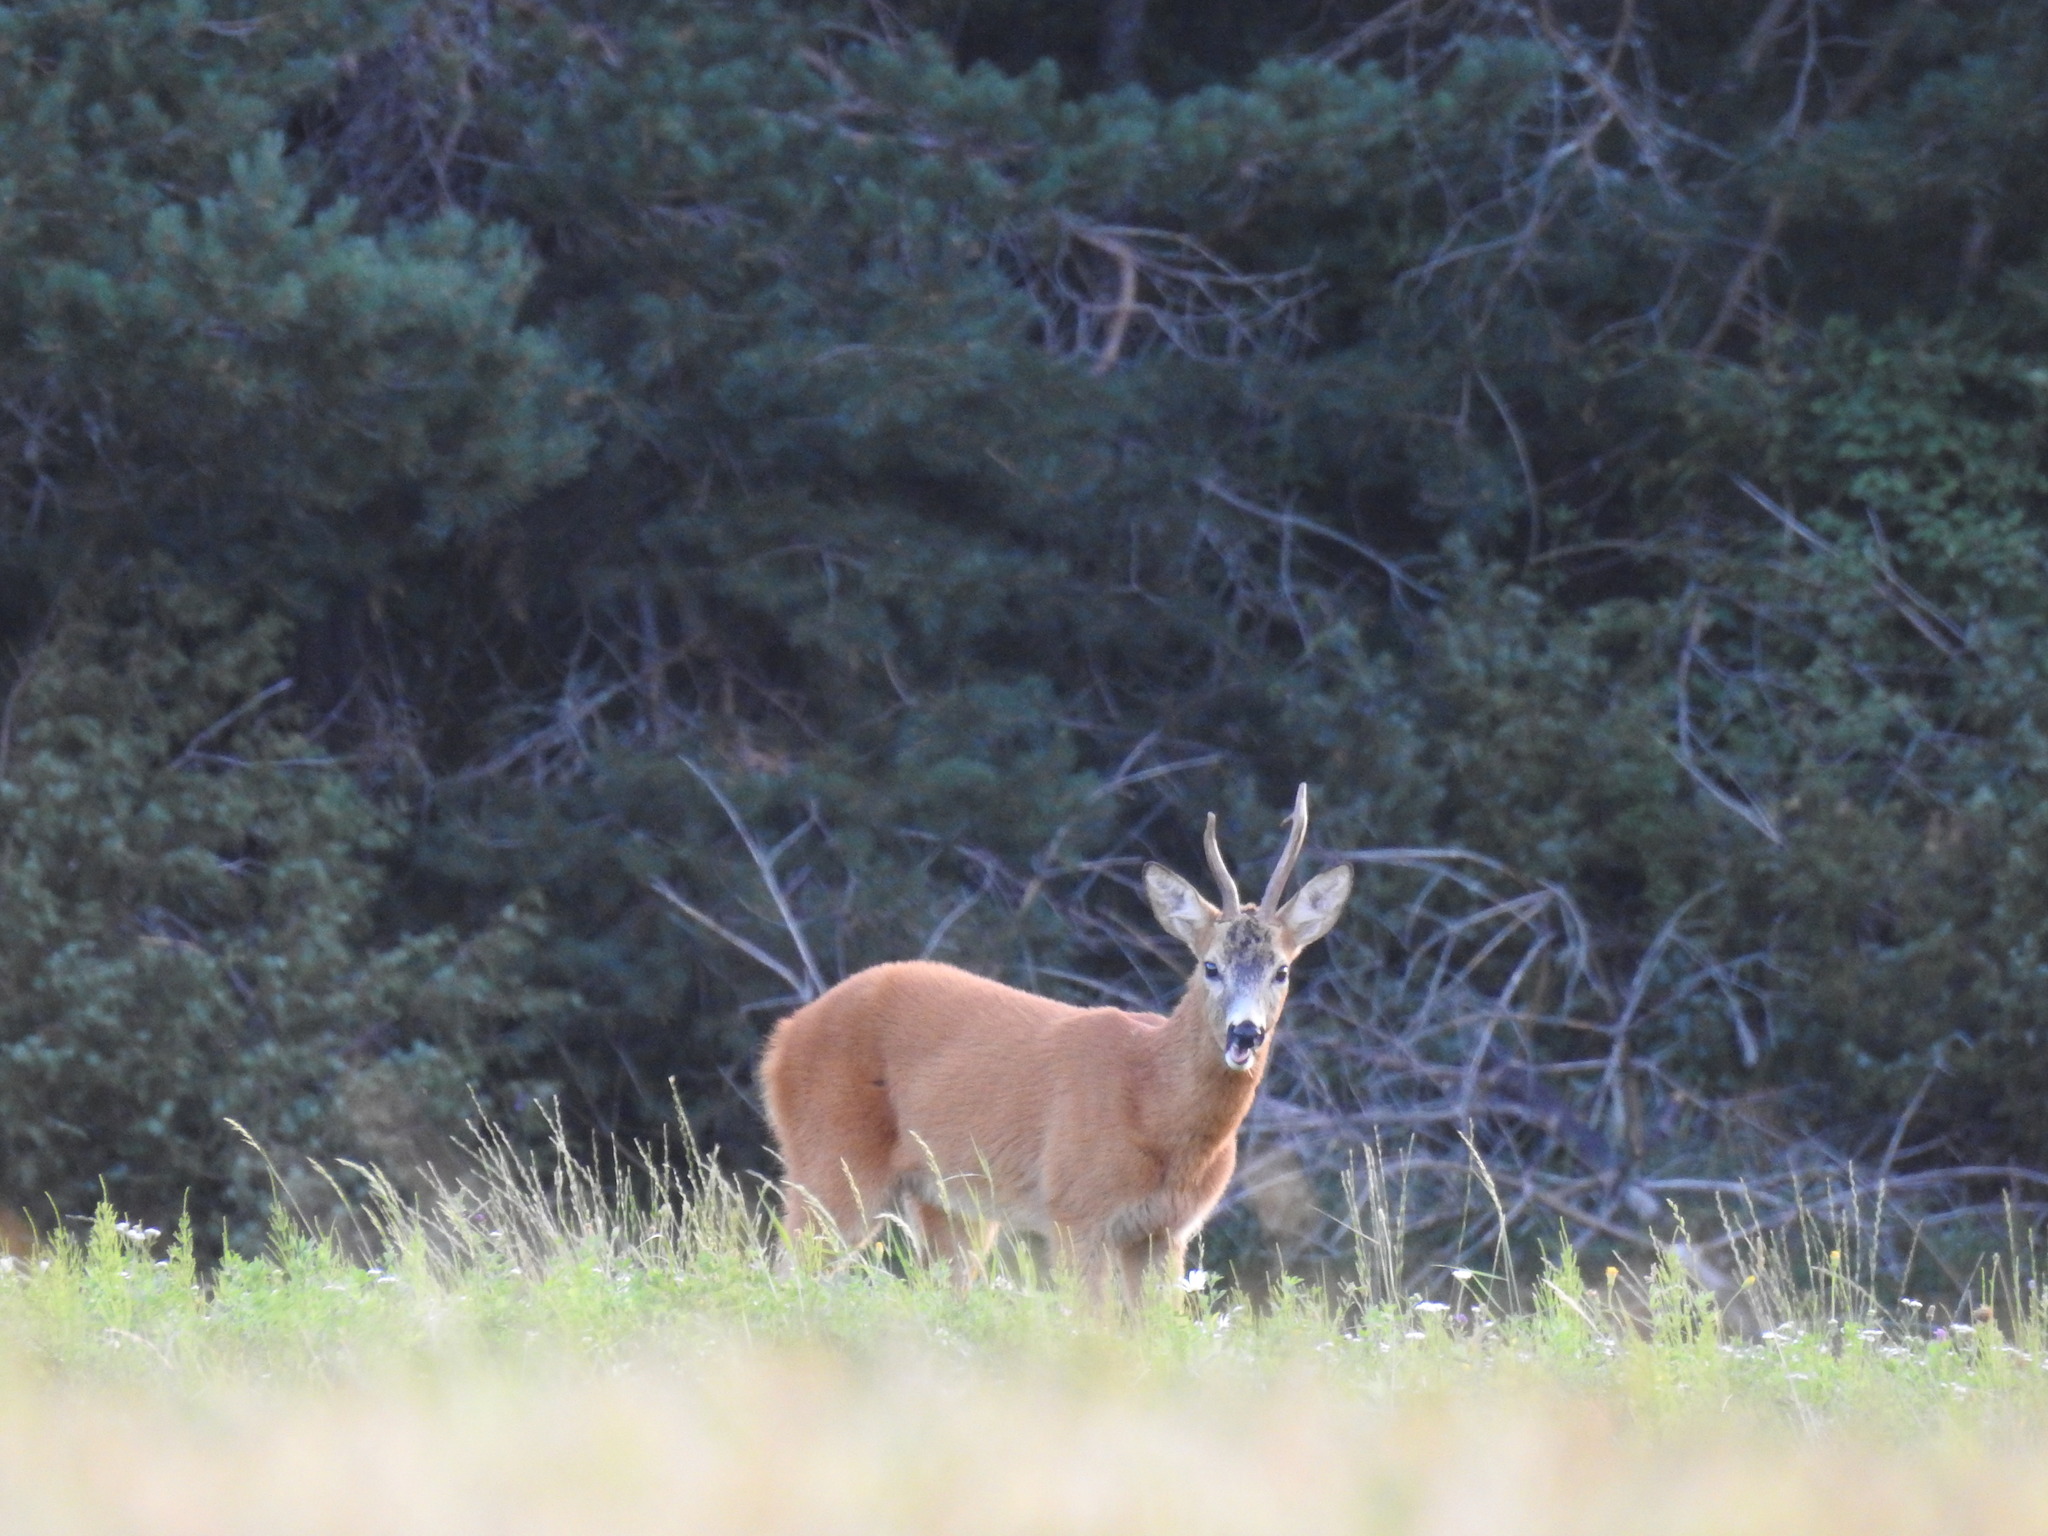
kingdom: Animalia
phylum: Chordata
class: Mammalia
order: Artiodactyla
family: Cervidae
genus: Capreolus
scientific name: Capreolus capreolus
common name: Western roe deer
